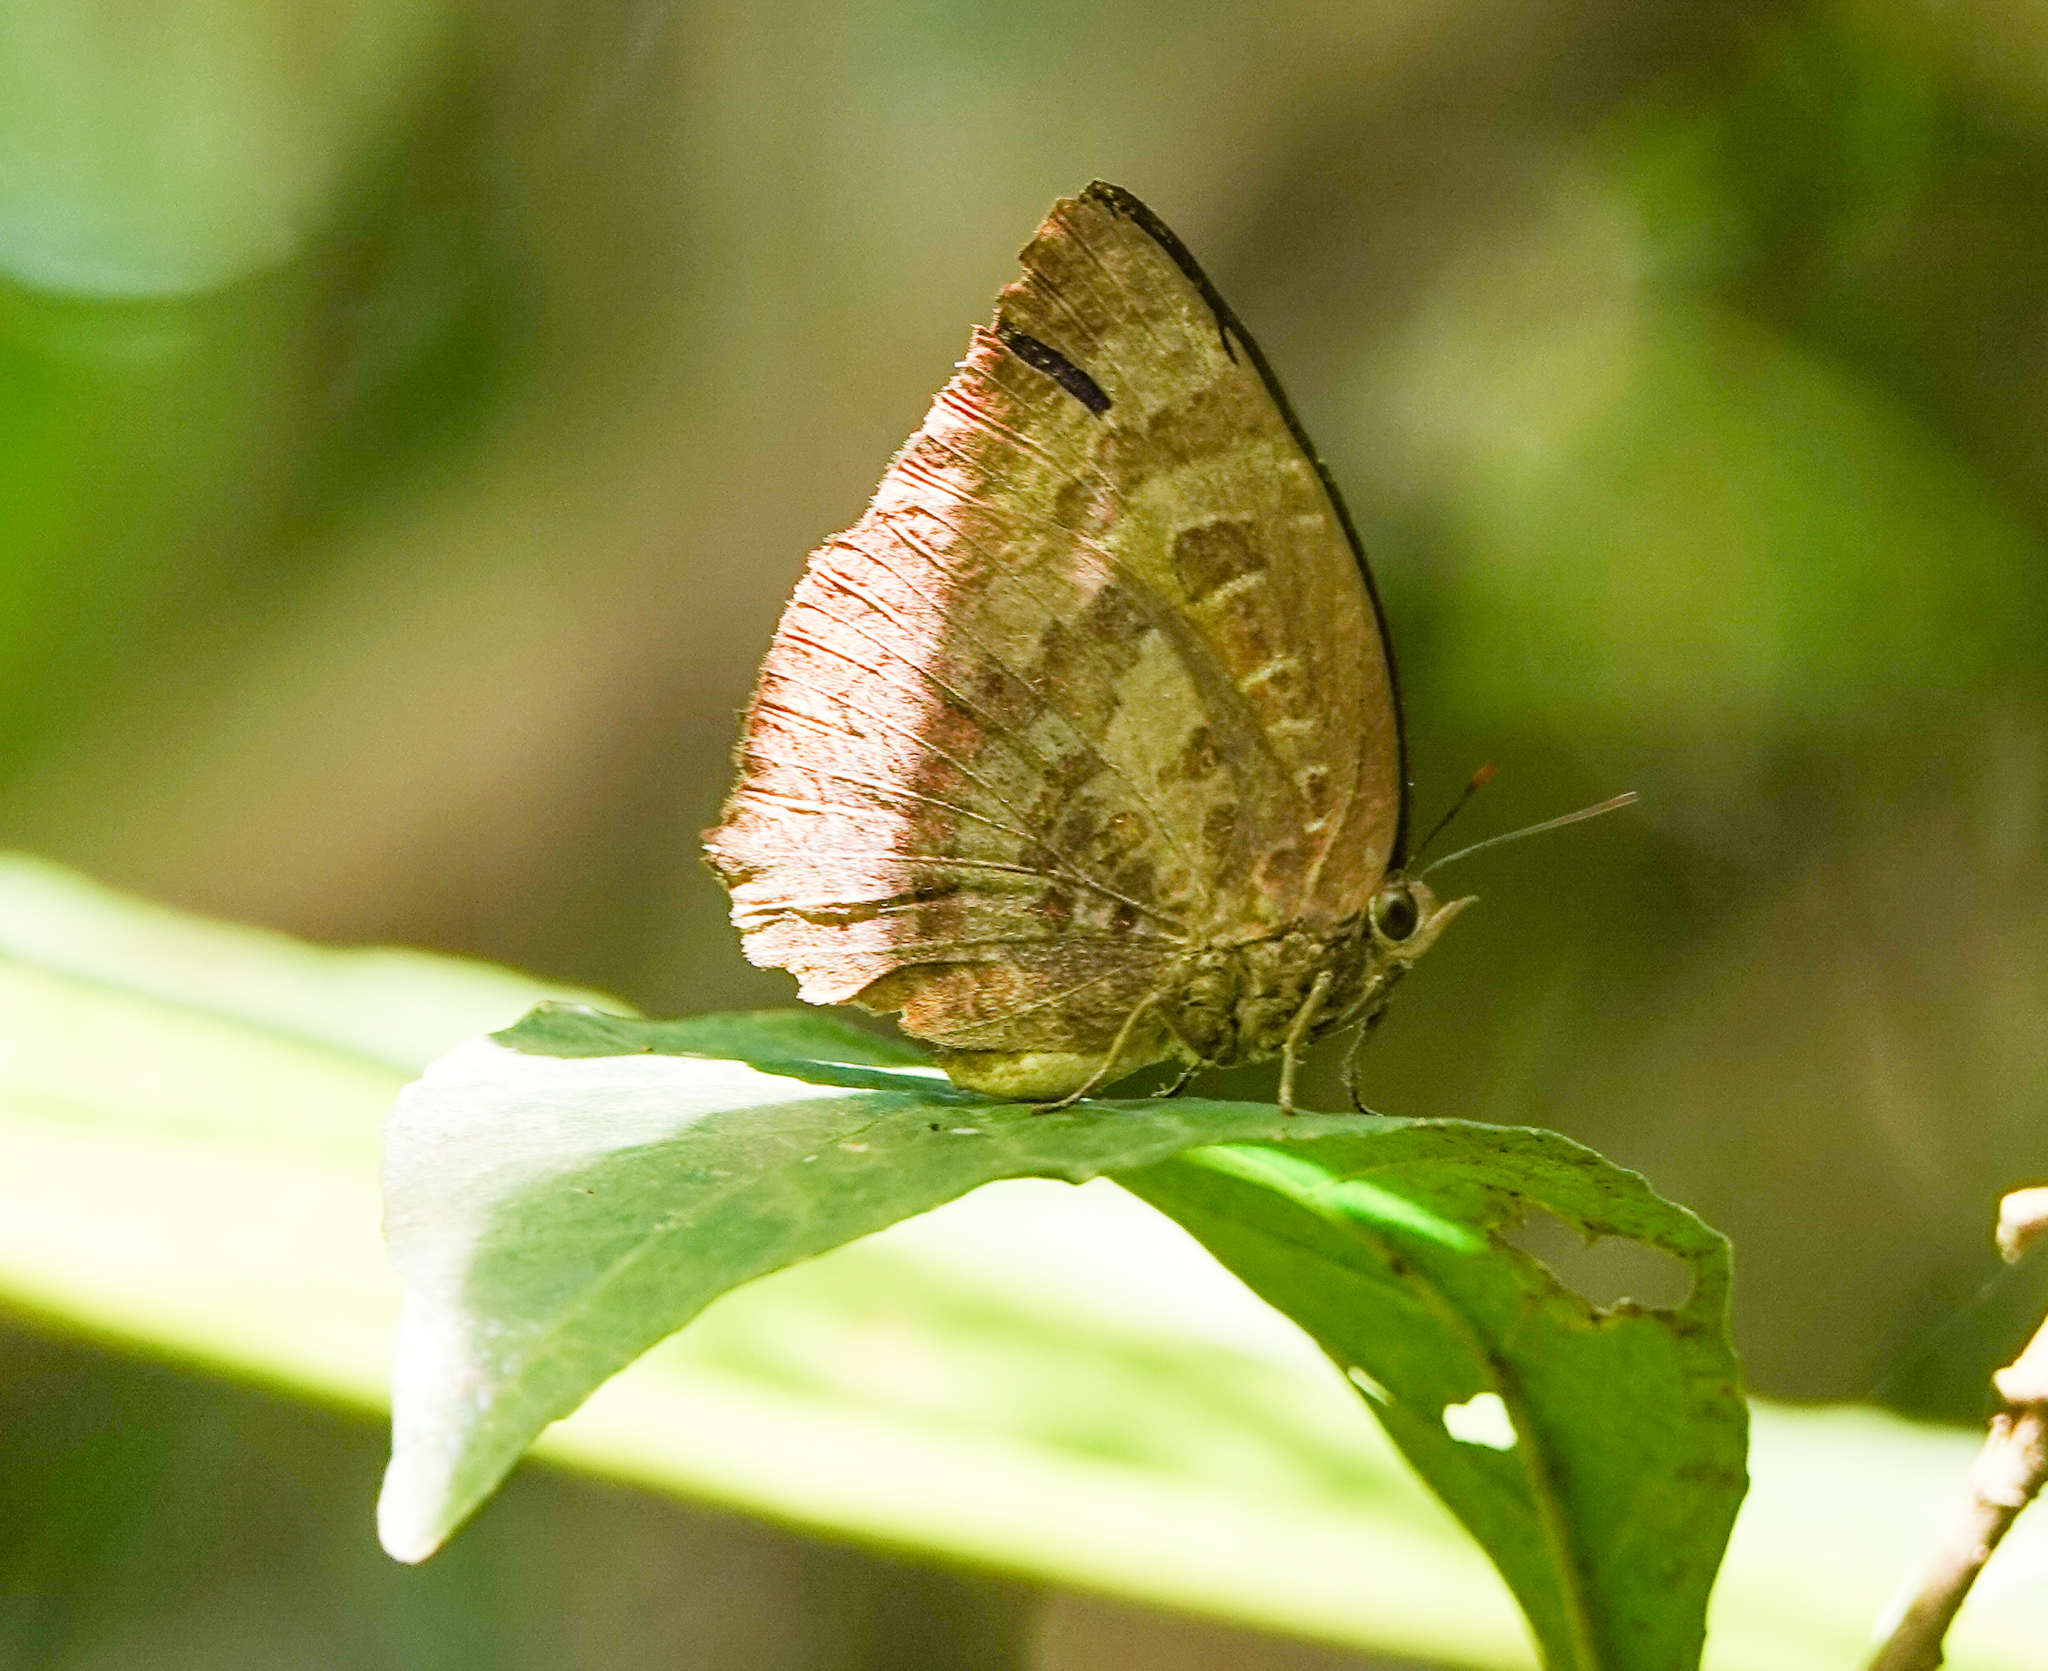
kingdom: Animalia
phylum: Arthropoda
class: Insecta
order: Lepidoptera
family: Lycaenidae
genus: Arhopala
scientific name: Arhopala centaurus
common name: Dull oak-blue
